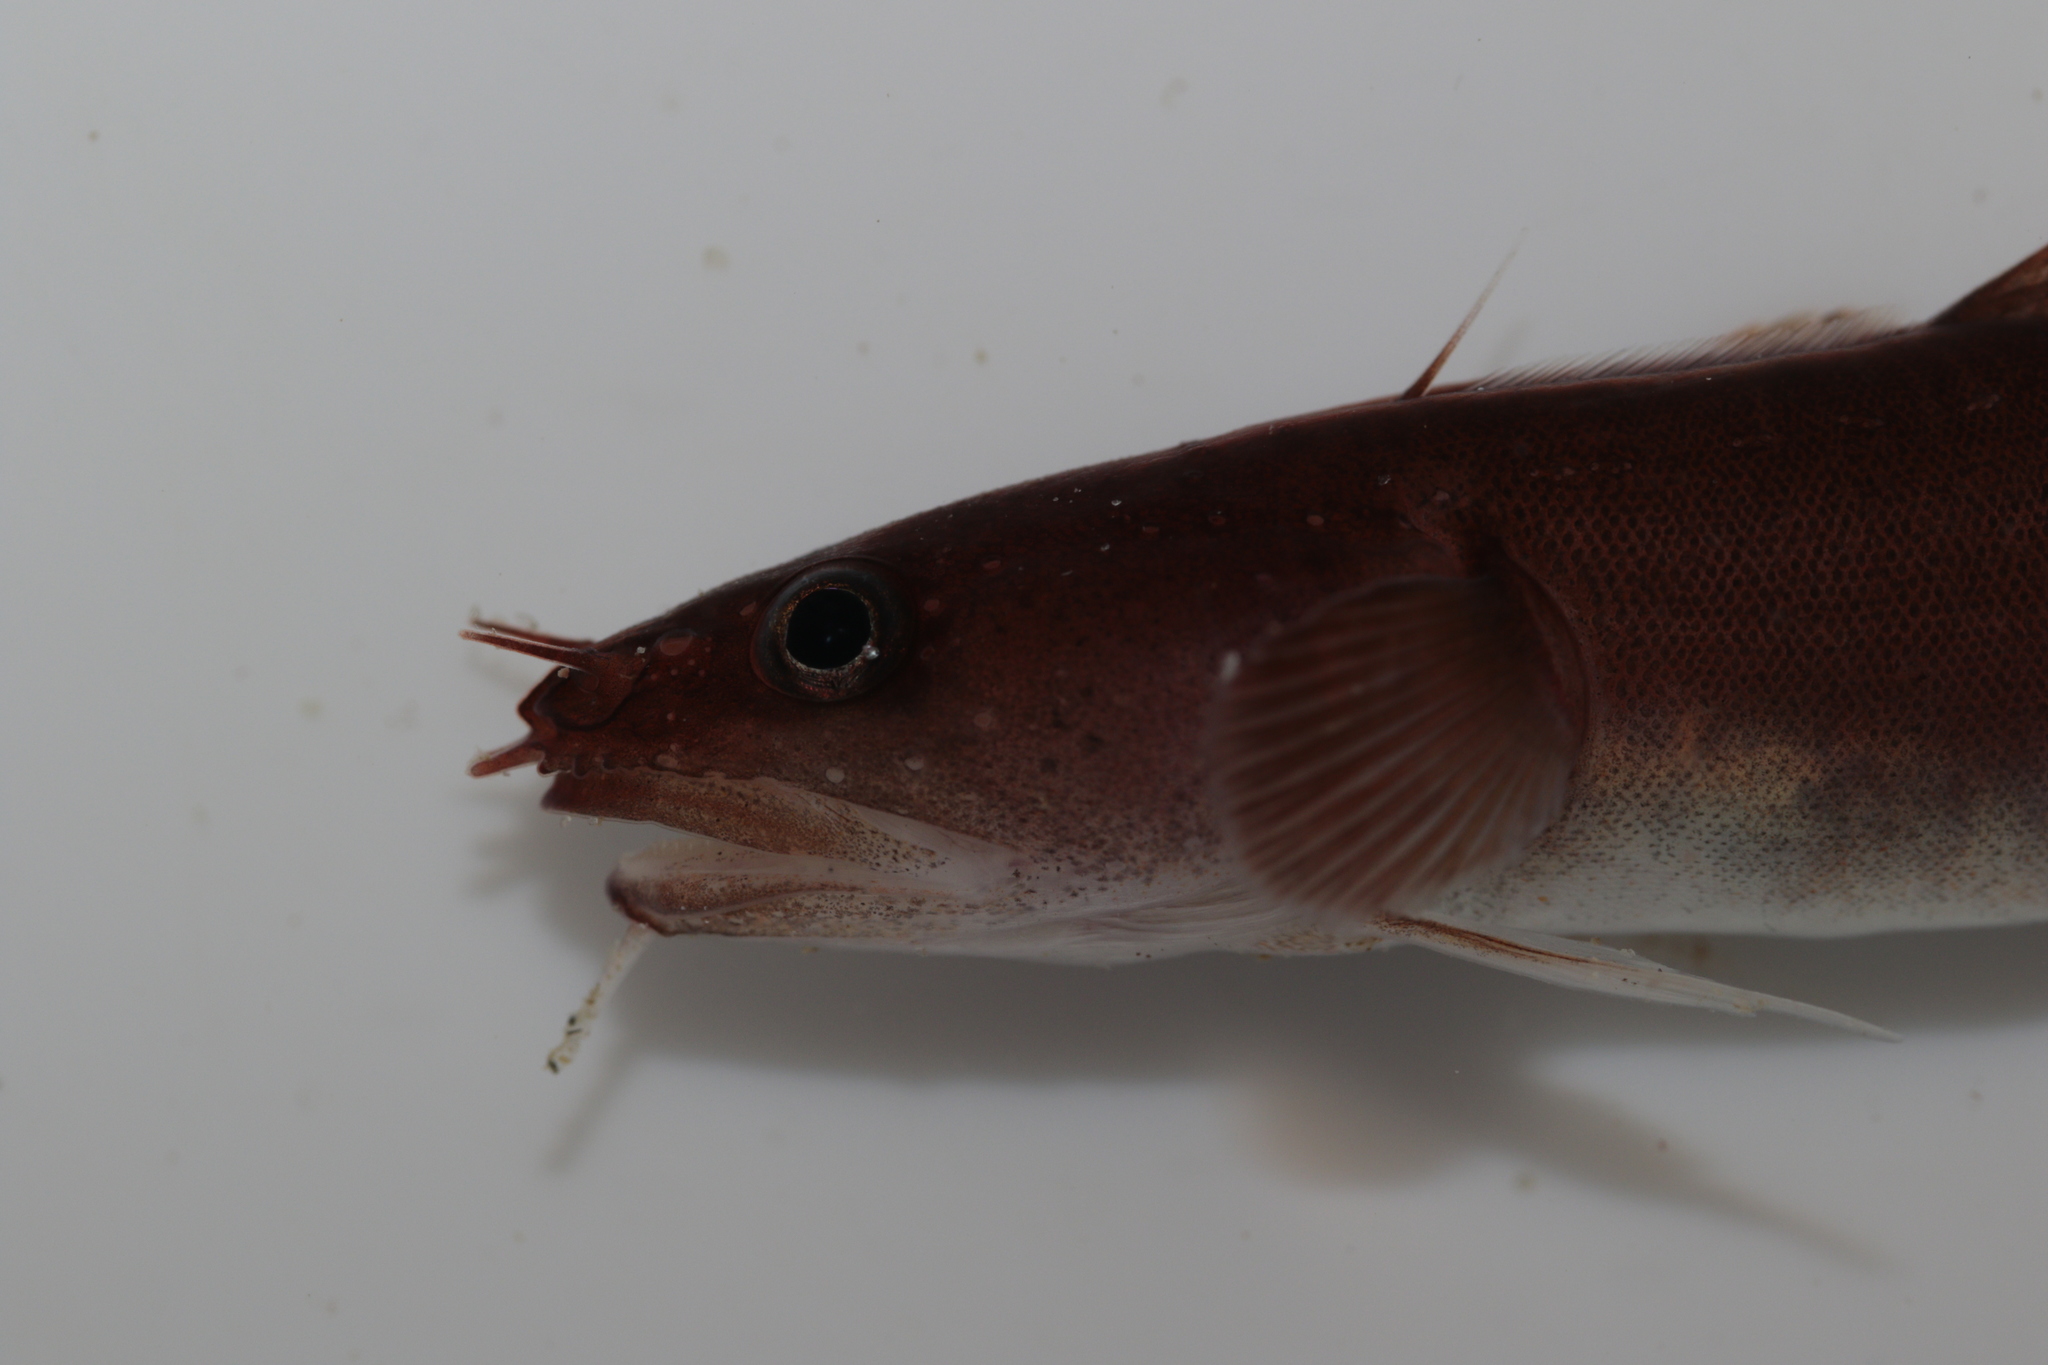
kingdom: Animalia
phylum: Chordata
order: Gadiformes
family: Lotidae
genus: Ciliata
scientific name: Ciliata septentrionalis
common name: Northern rockling
